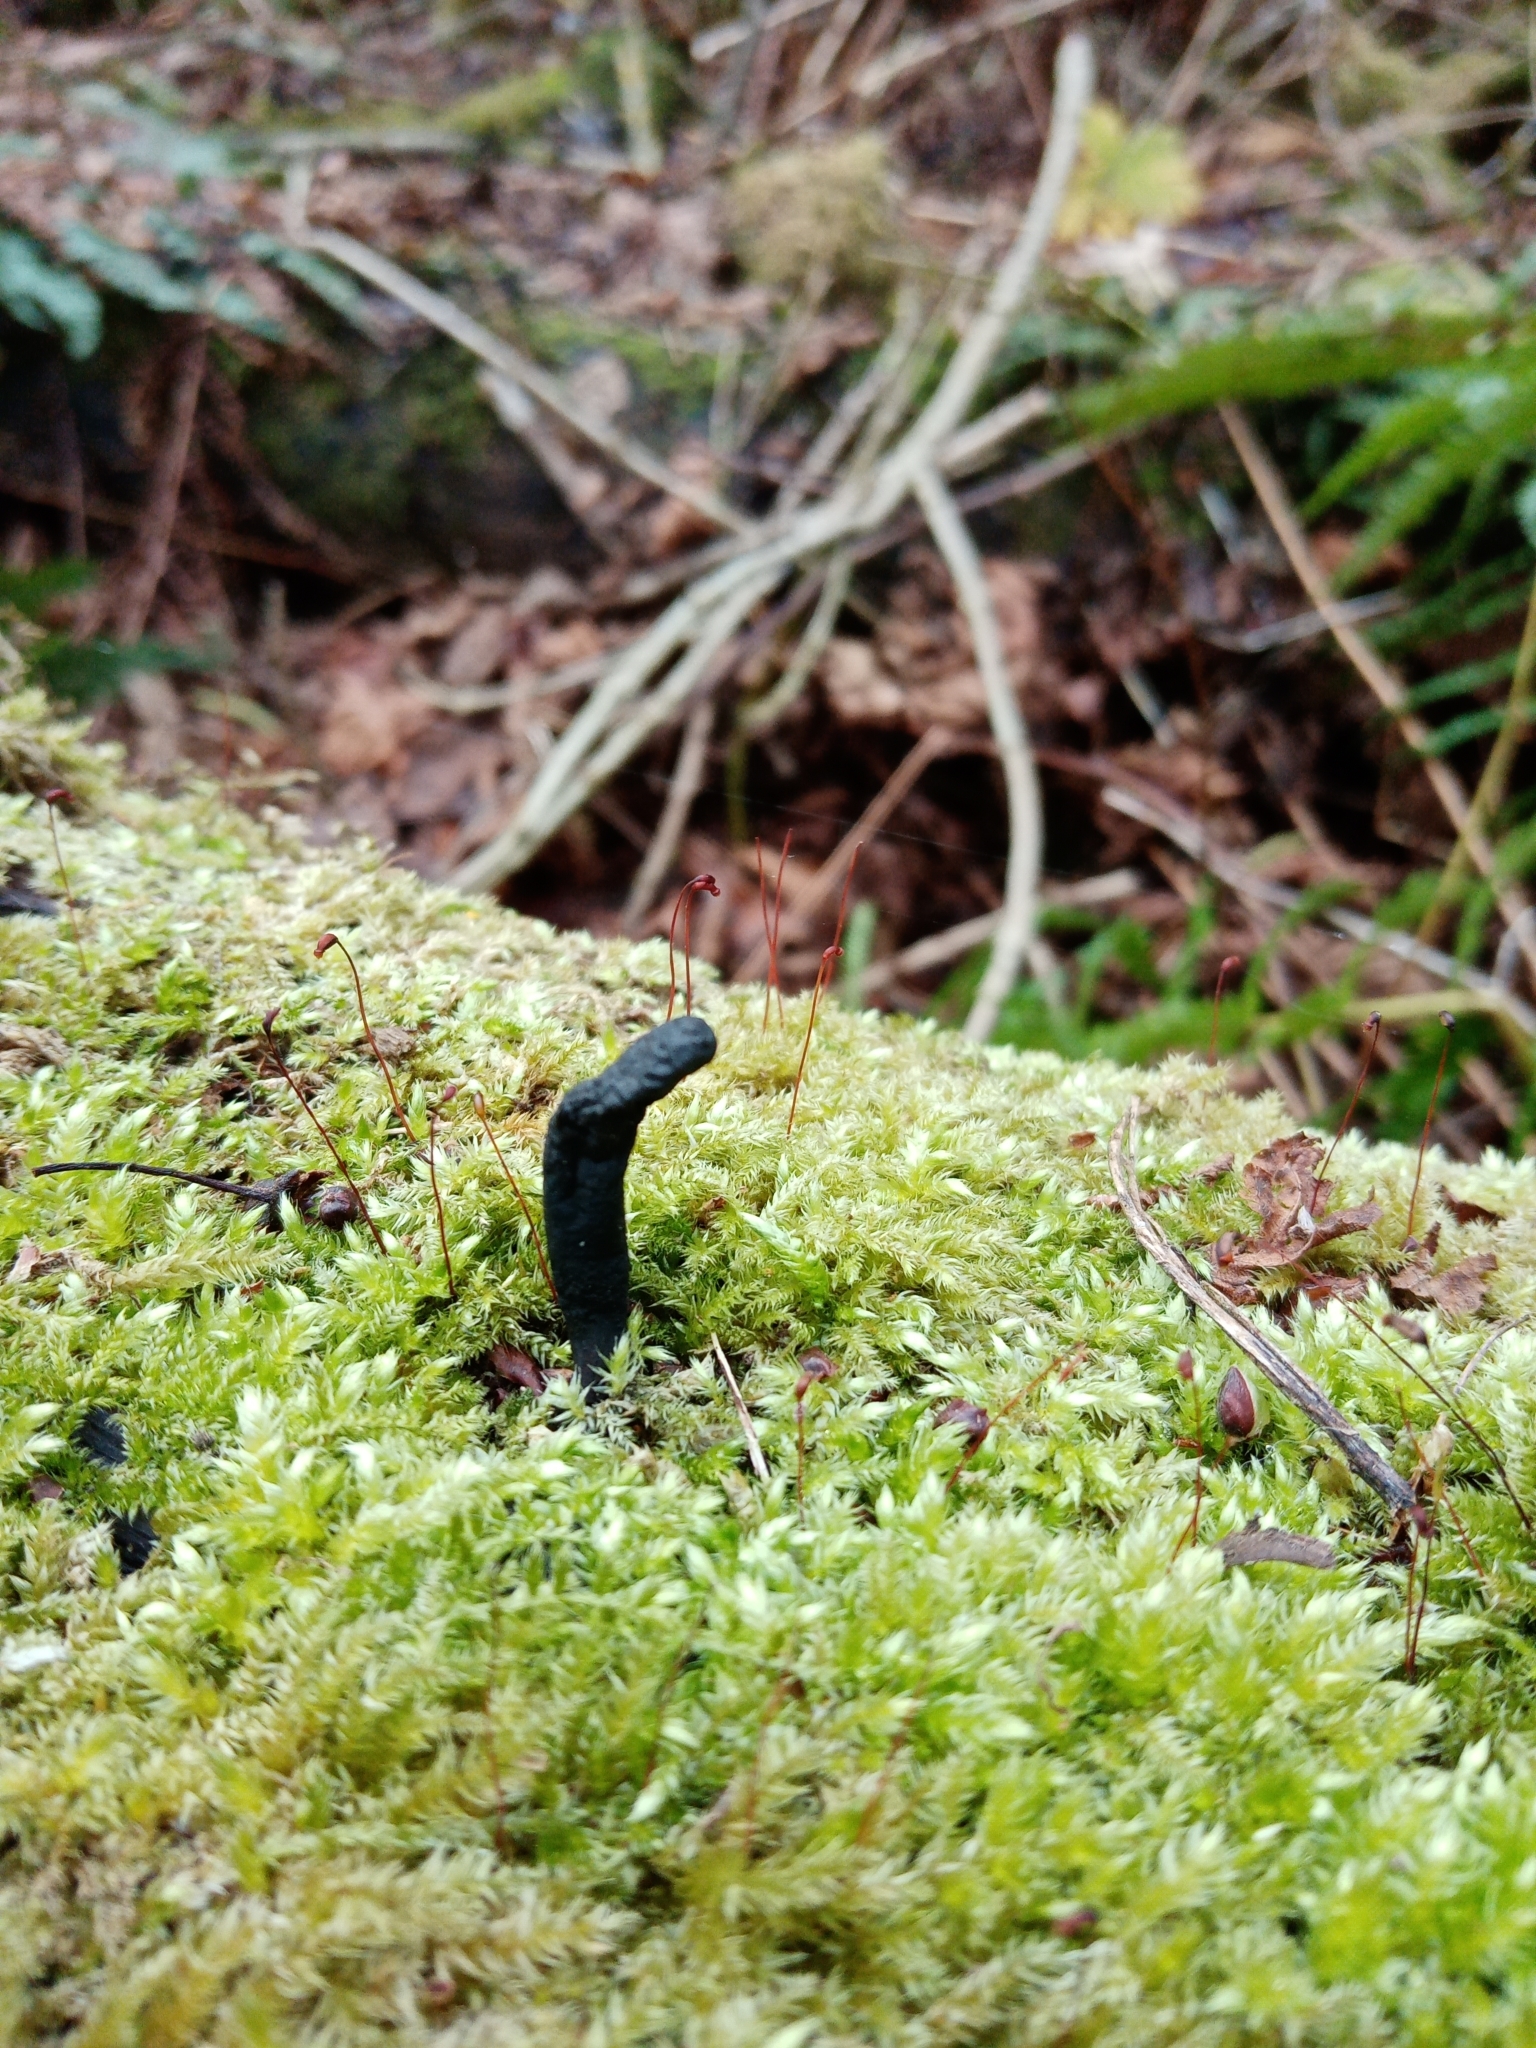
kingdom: Fungi
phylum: Ascomycota
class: Sordariomycetes
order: Xylariales
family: Xylariaceae
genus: Xylaria
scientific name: Xylaria longipes
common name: Dead moll's fingers
